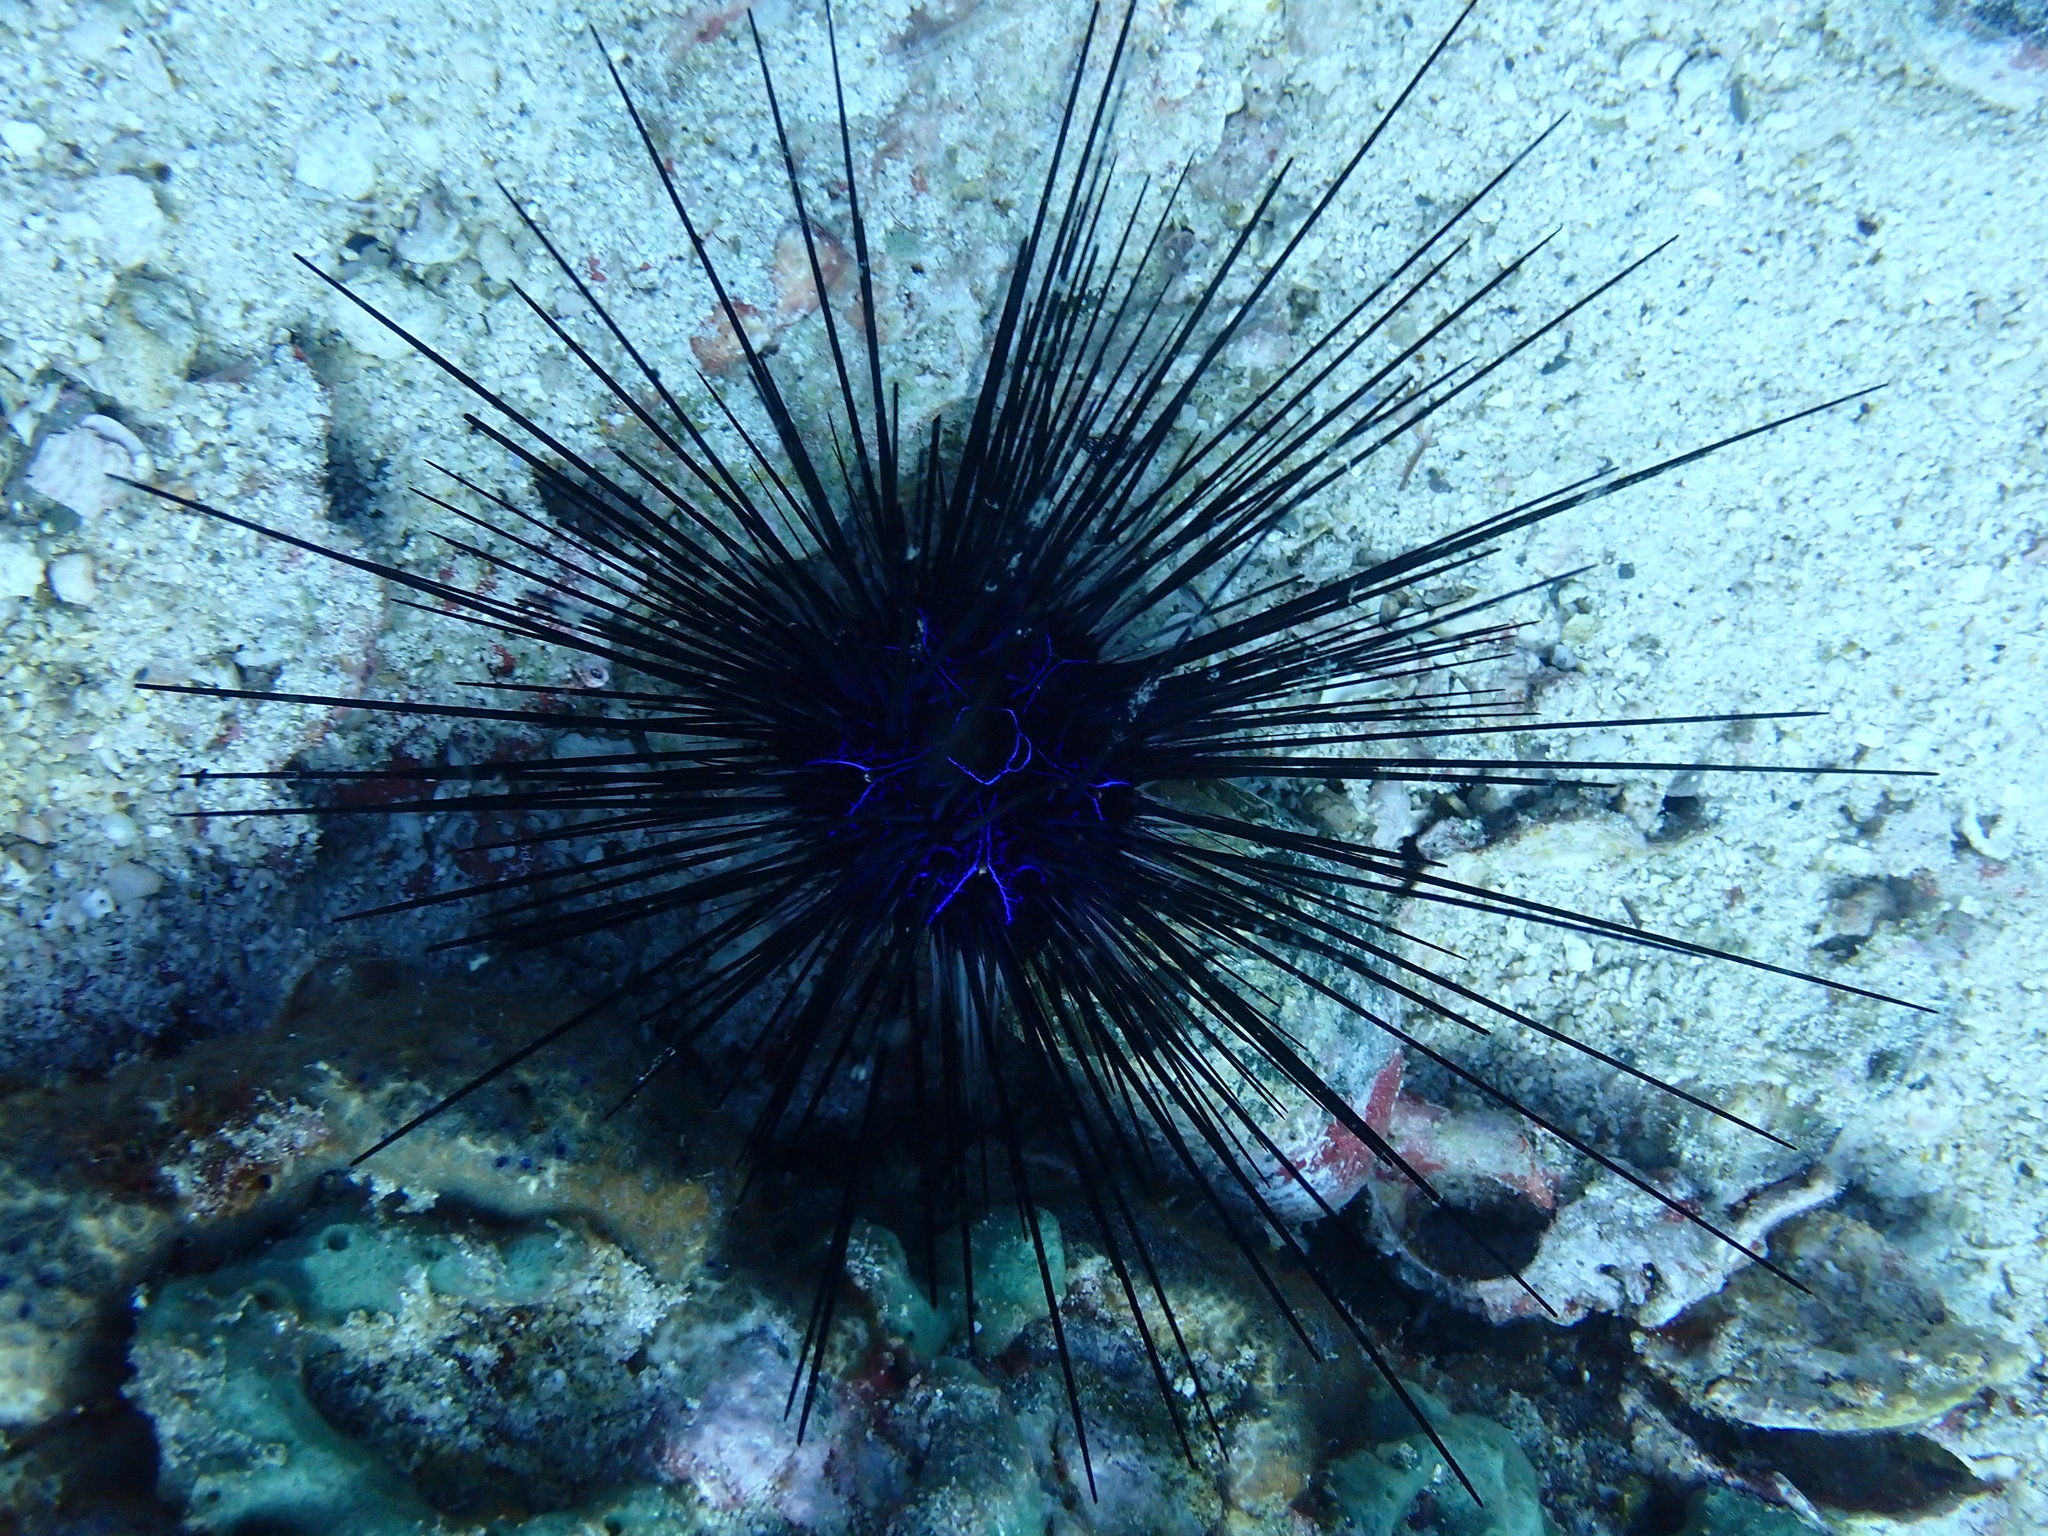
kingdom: Animalia
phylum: Echinodermata
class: Echinoidea
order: Diadematoida
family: Diadematidae
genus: Diadema
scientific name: Diadema savignyi
